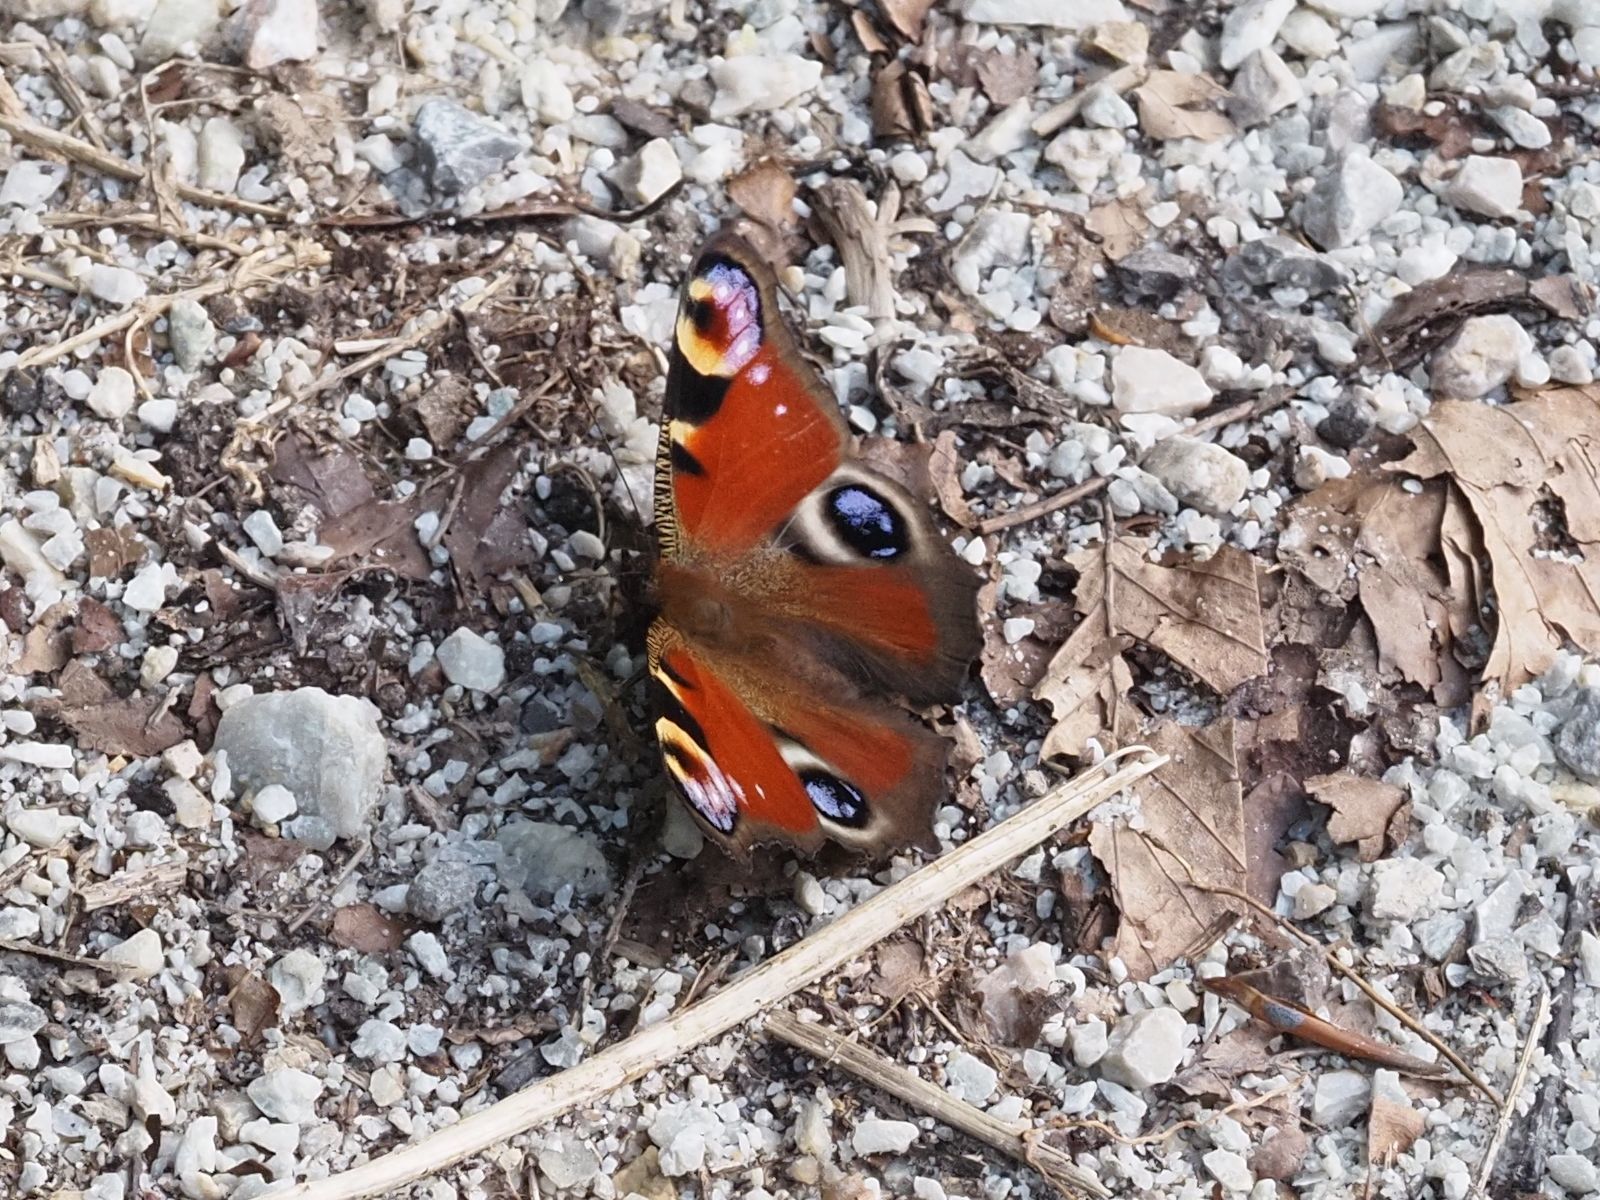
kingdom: Animalia
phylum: Arthropoda
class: Insecta
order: Lepidoptera
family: Nymphalidae
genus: Aglais
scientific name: Aglais io
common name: Peacock
